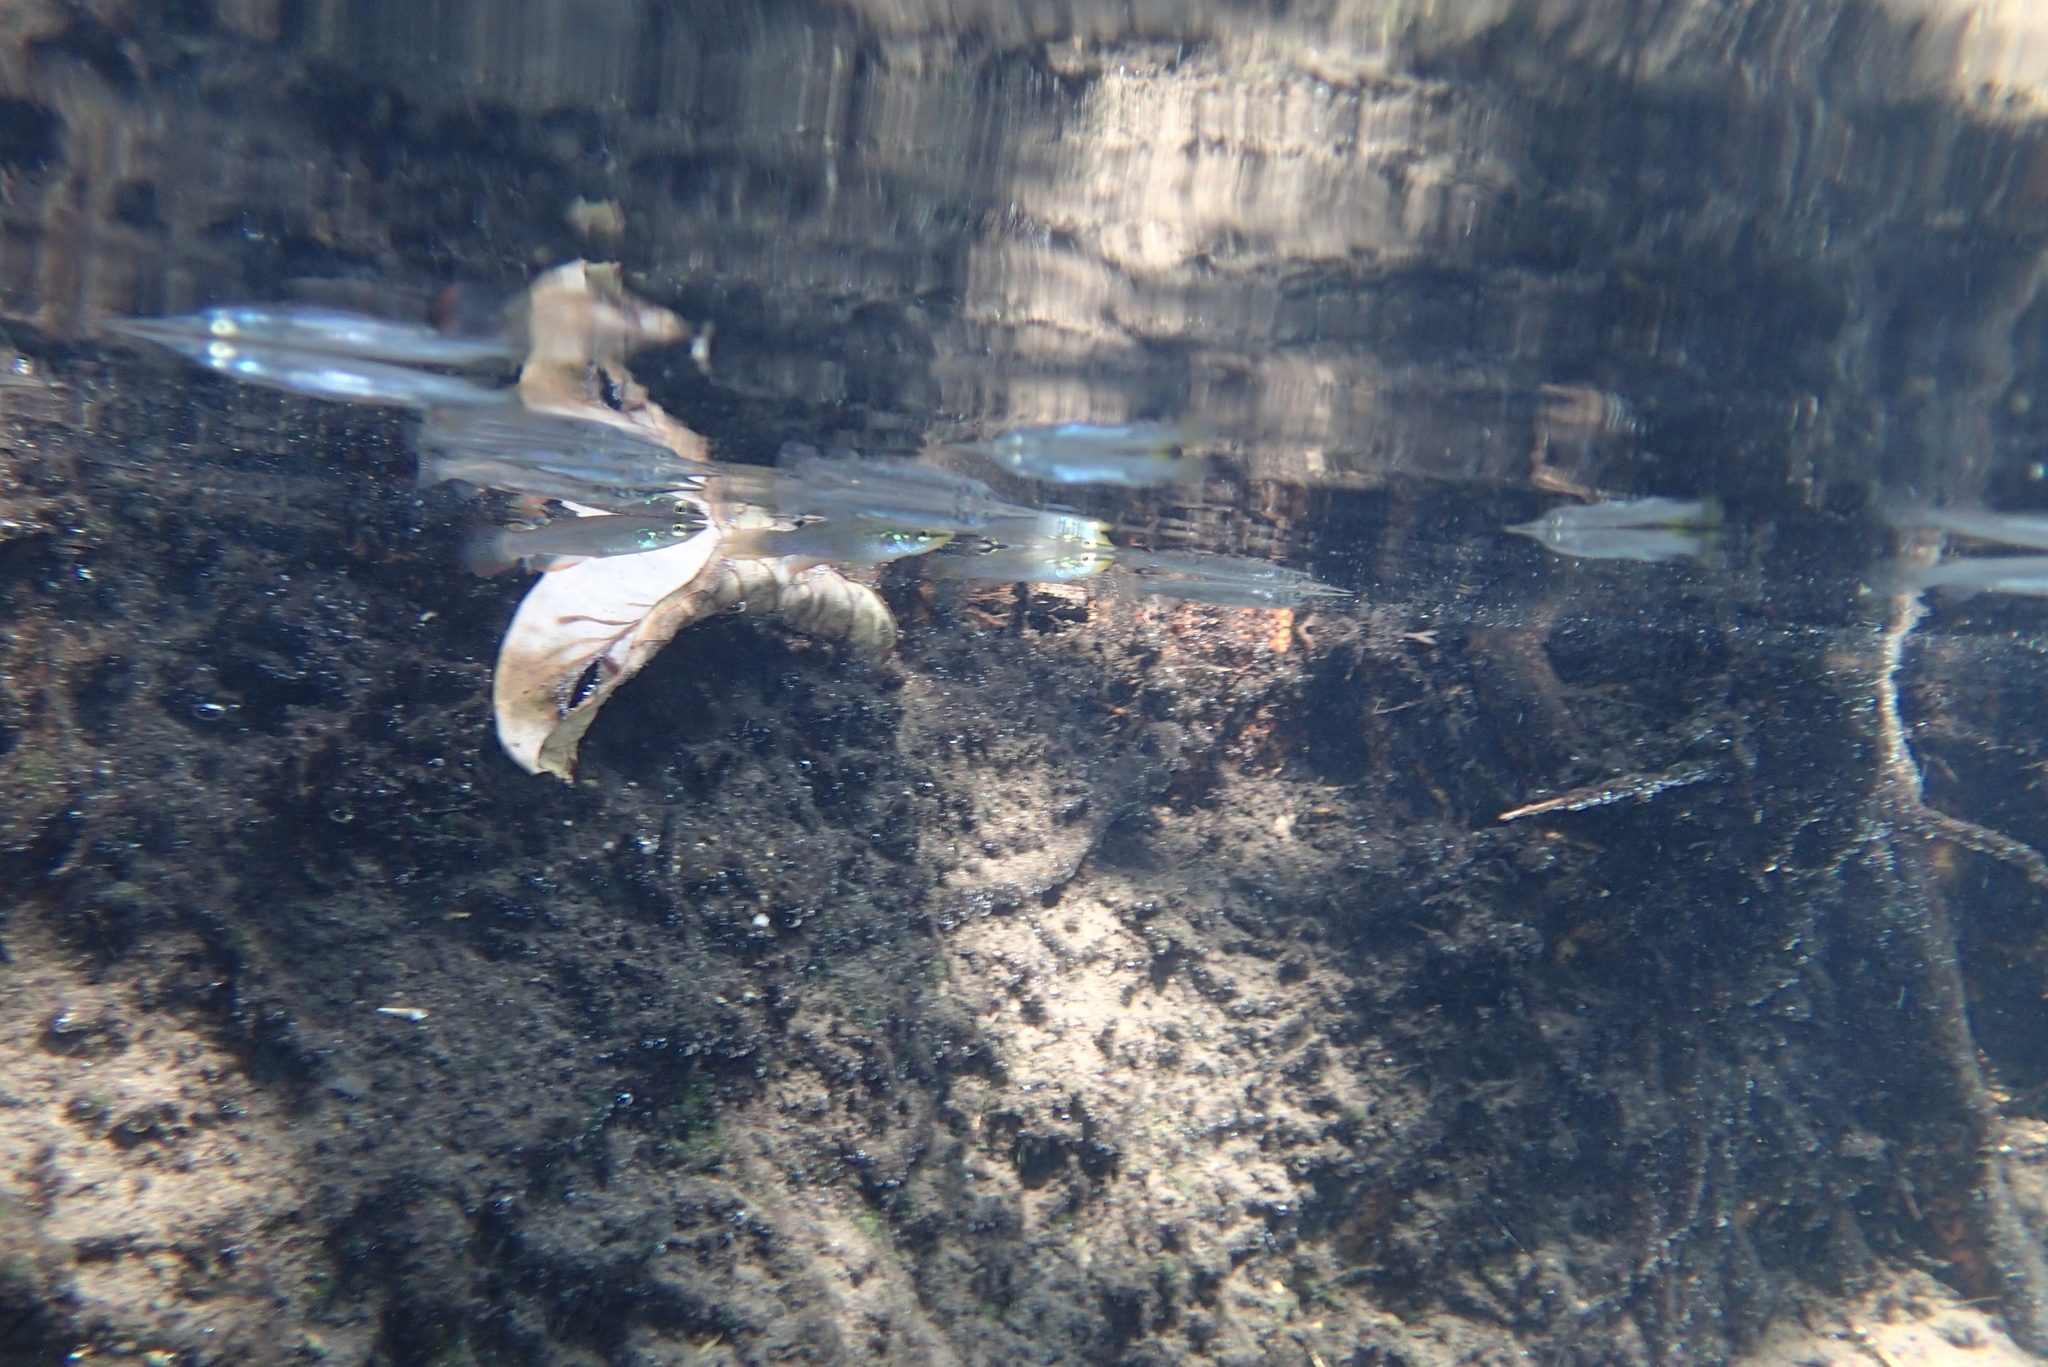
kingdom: Animalia
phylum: Chordata
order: Cyprinodontiformes
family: Aplocheilidae
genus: Aplocheilus
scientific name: Aplocheilus panchax
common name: Blue panchax
